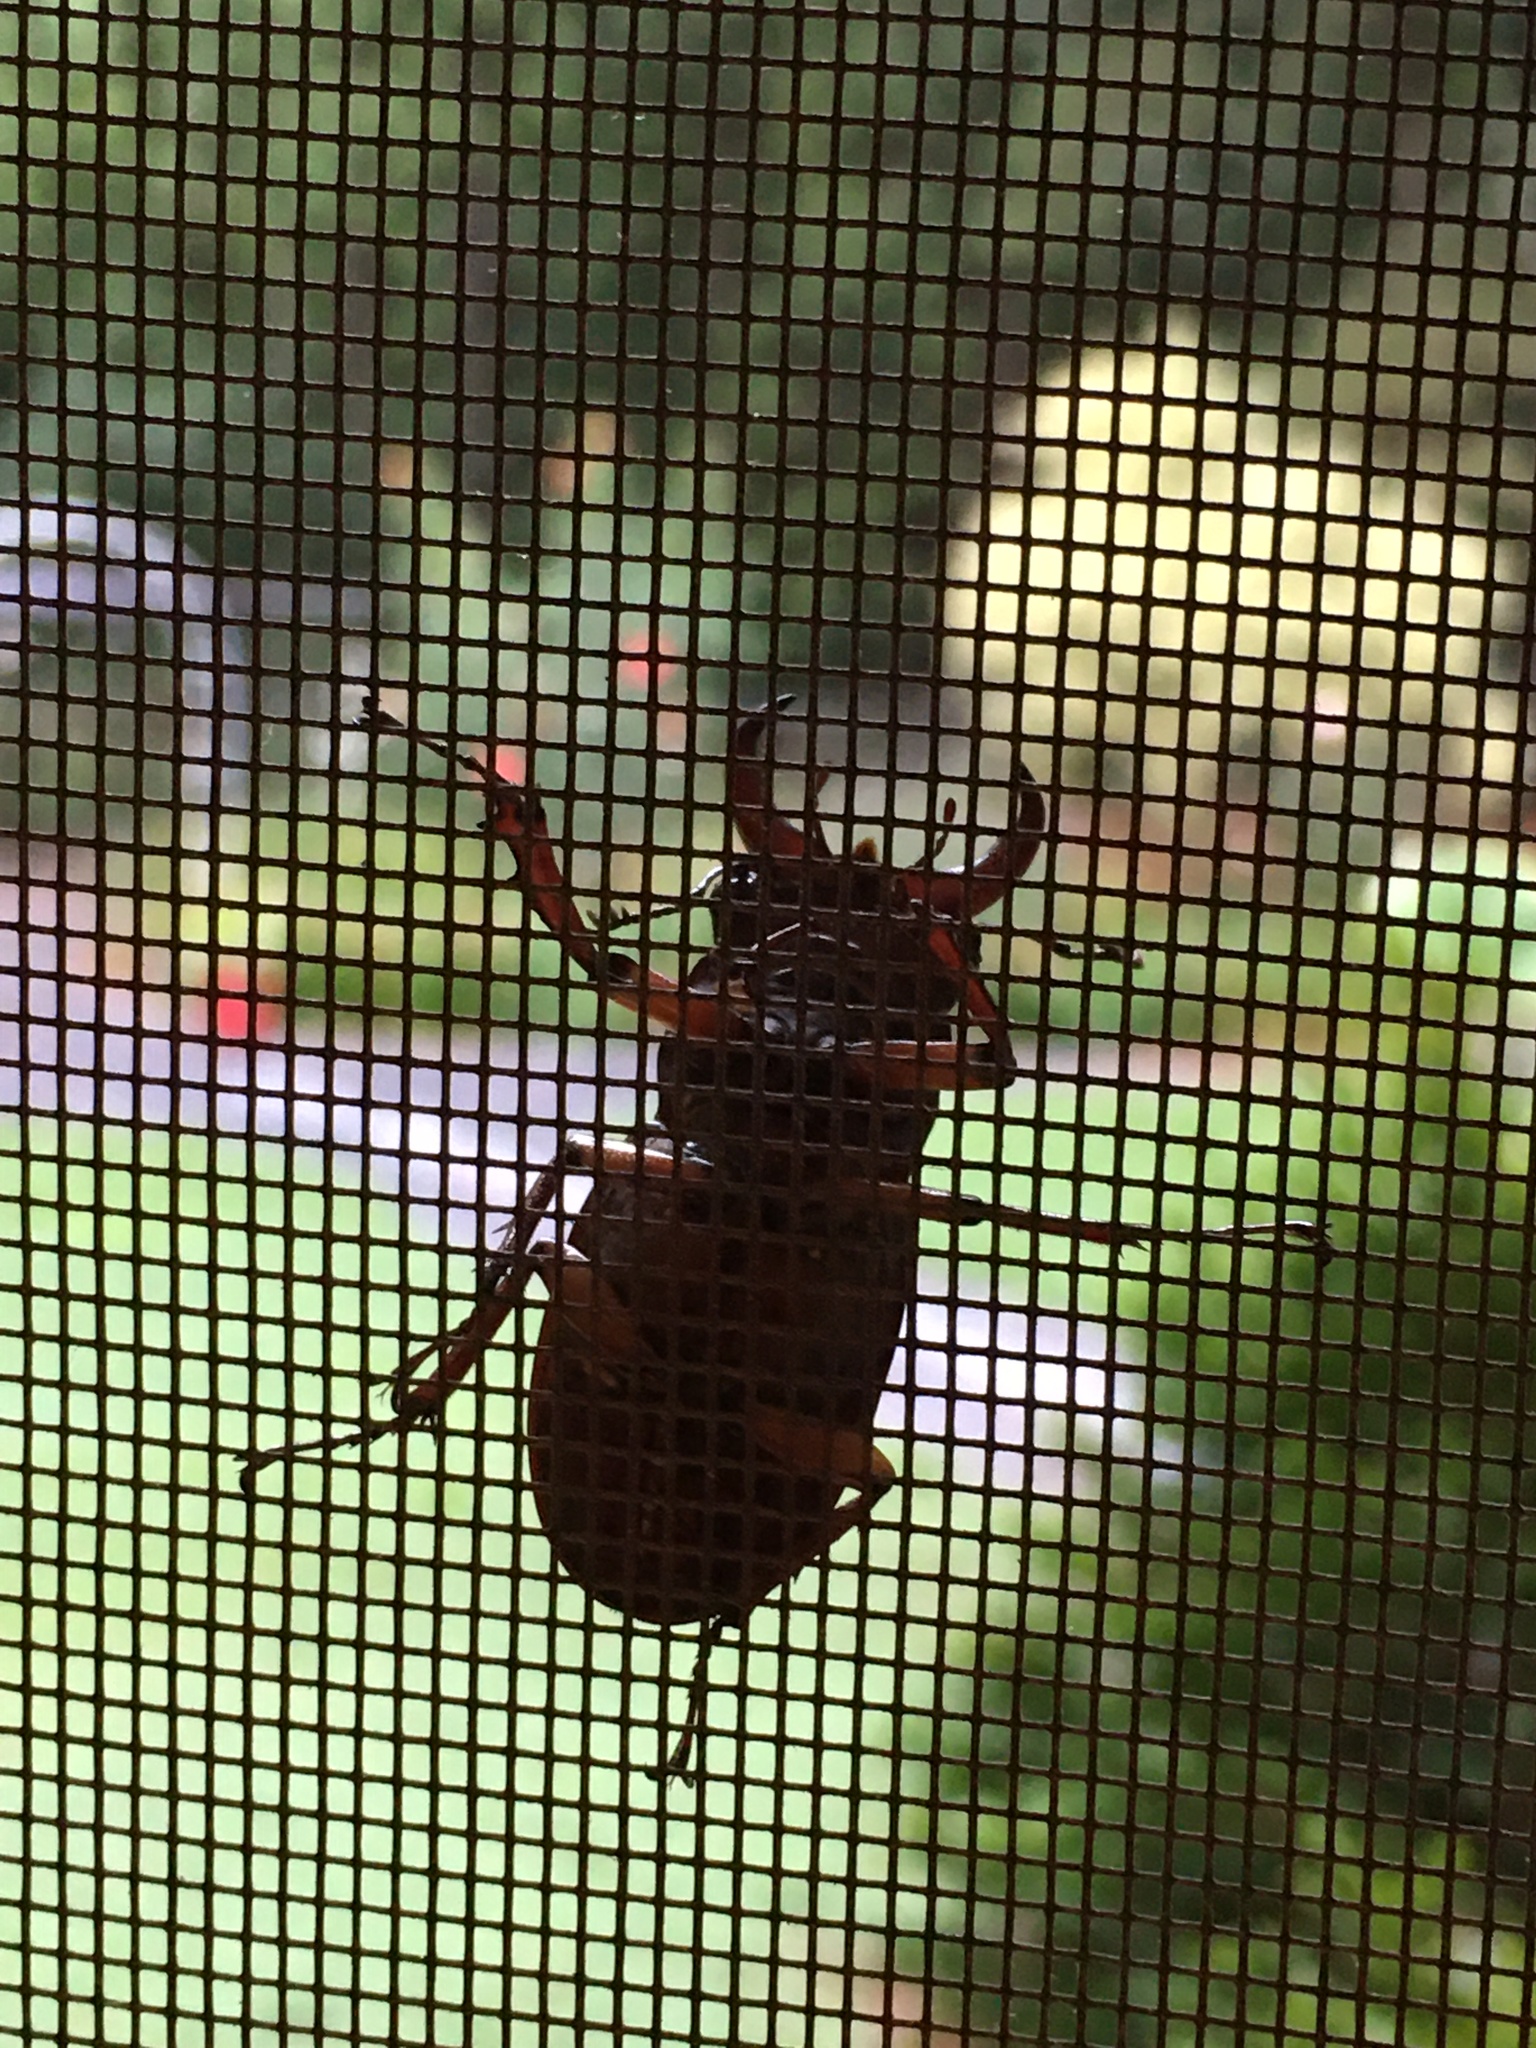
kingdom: Animalia
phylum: Arthropoda
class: Insecta
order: Coleoptera
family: Lucanidae
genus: Lucanus
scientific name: Lucanus capreolus
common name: Stag beetle
